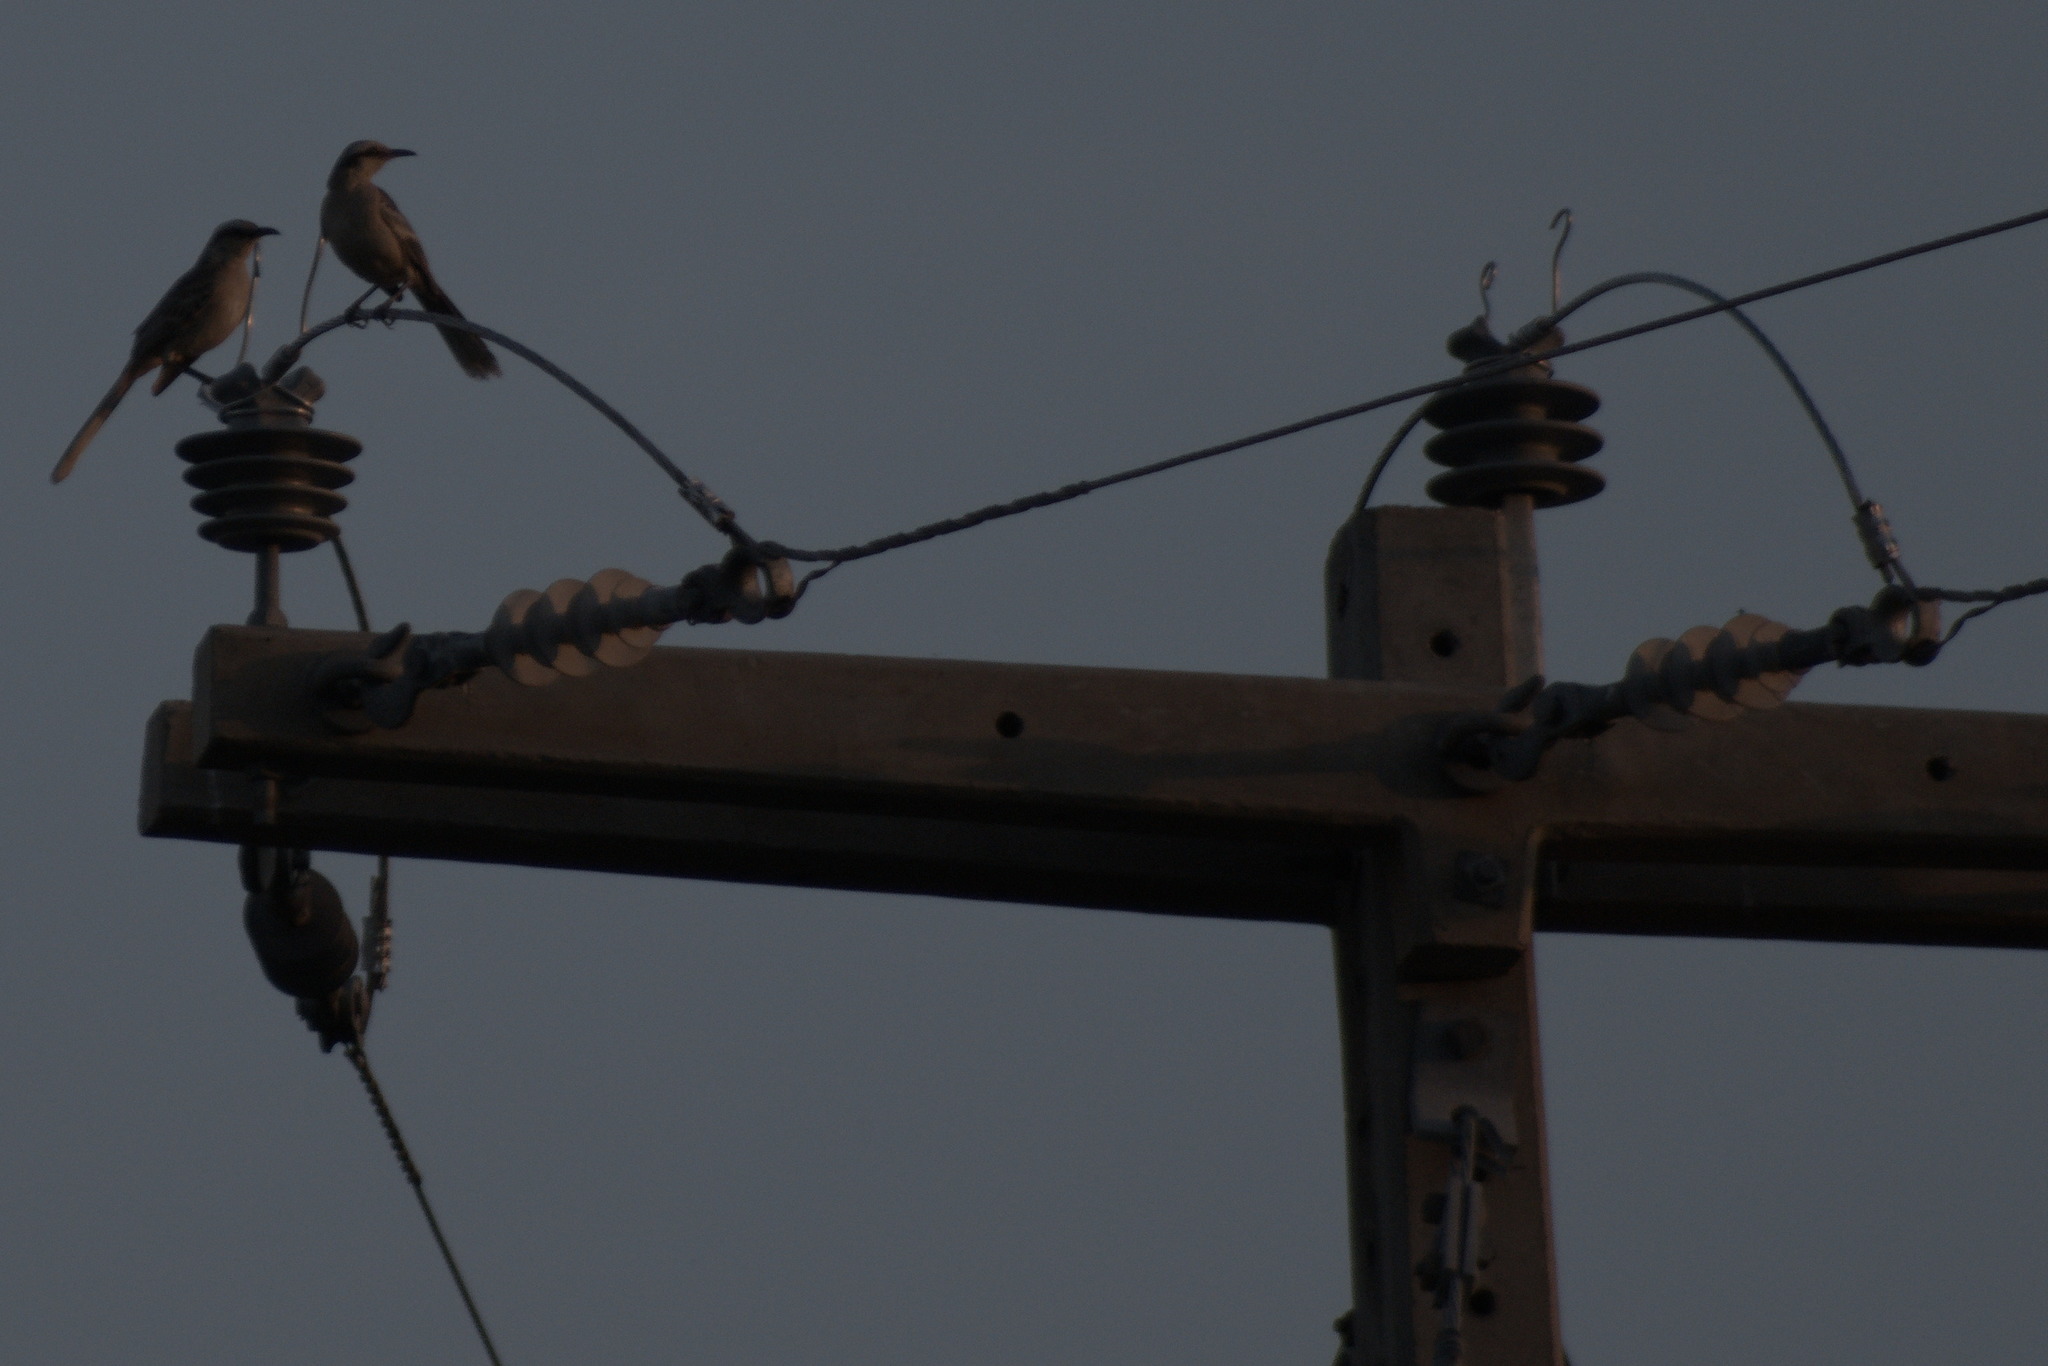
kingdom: Animalia
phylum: Chordata
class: Aves
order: Passeriformes
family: Mimidae
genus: Mimus
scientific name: Mimus saturninus
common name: Chalk-browed mockingbird
